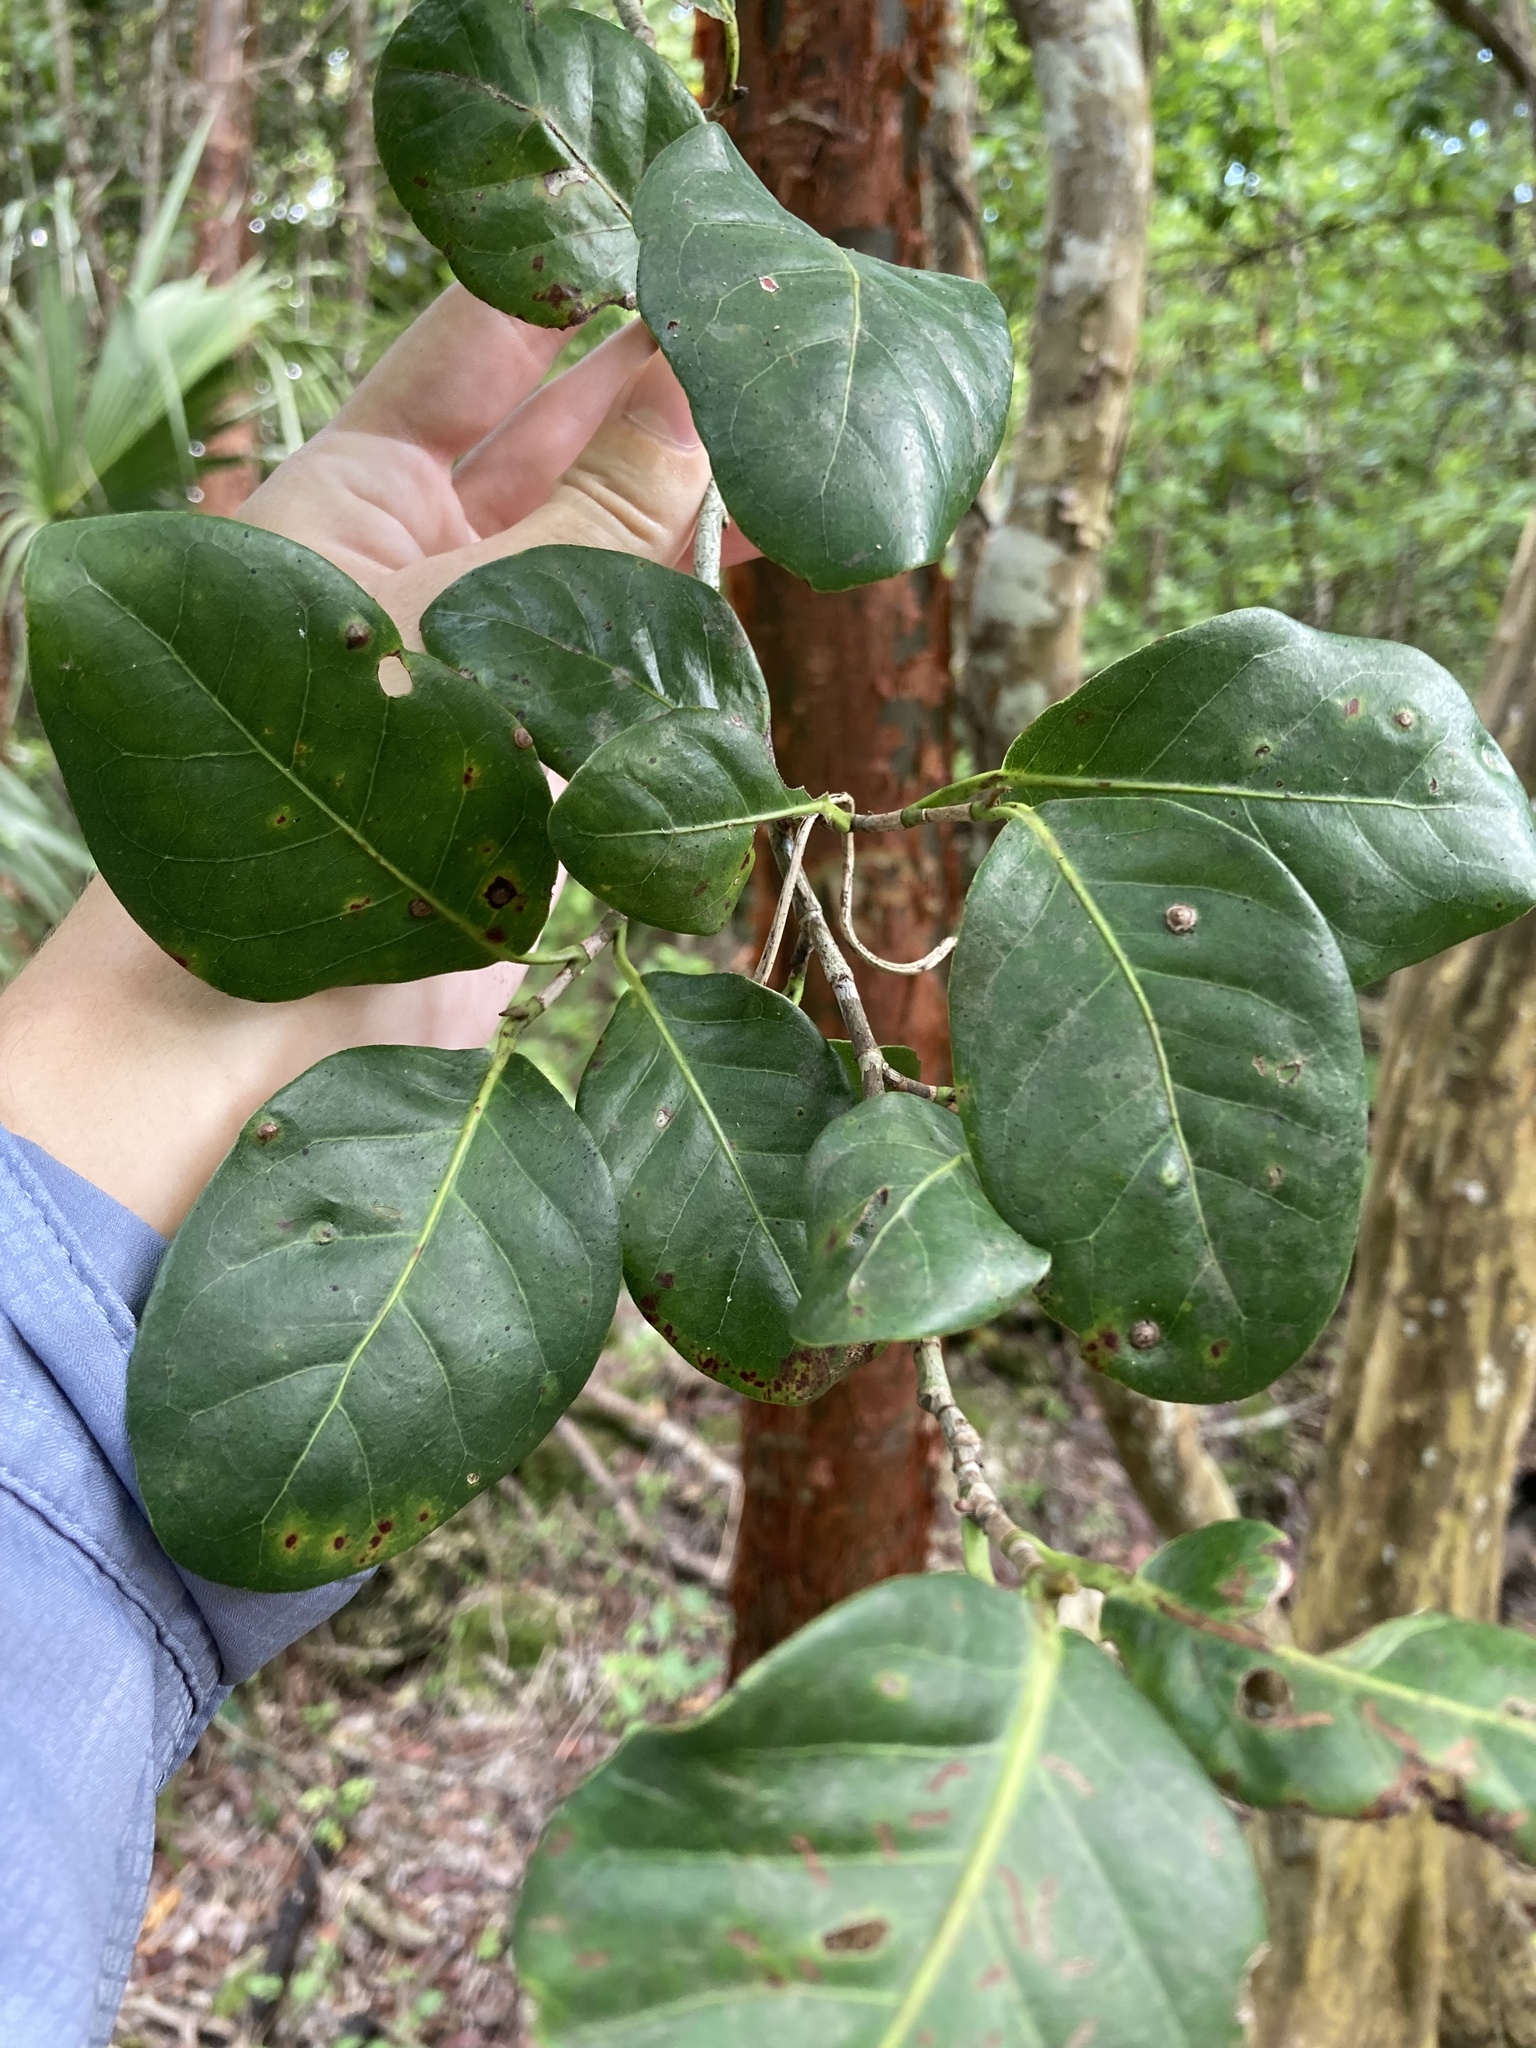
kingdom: Plantae
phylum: Tracheophyta
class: Magnoliopsida
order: Caryophyllales
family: Polygonaceae
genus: Coccoloba
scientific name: Coccoloba diversifolia
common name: Pigeon-plum
